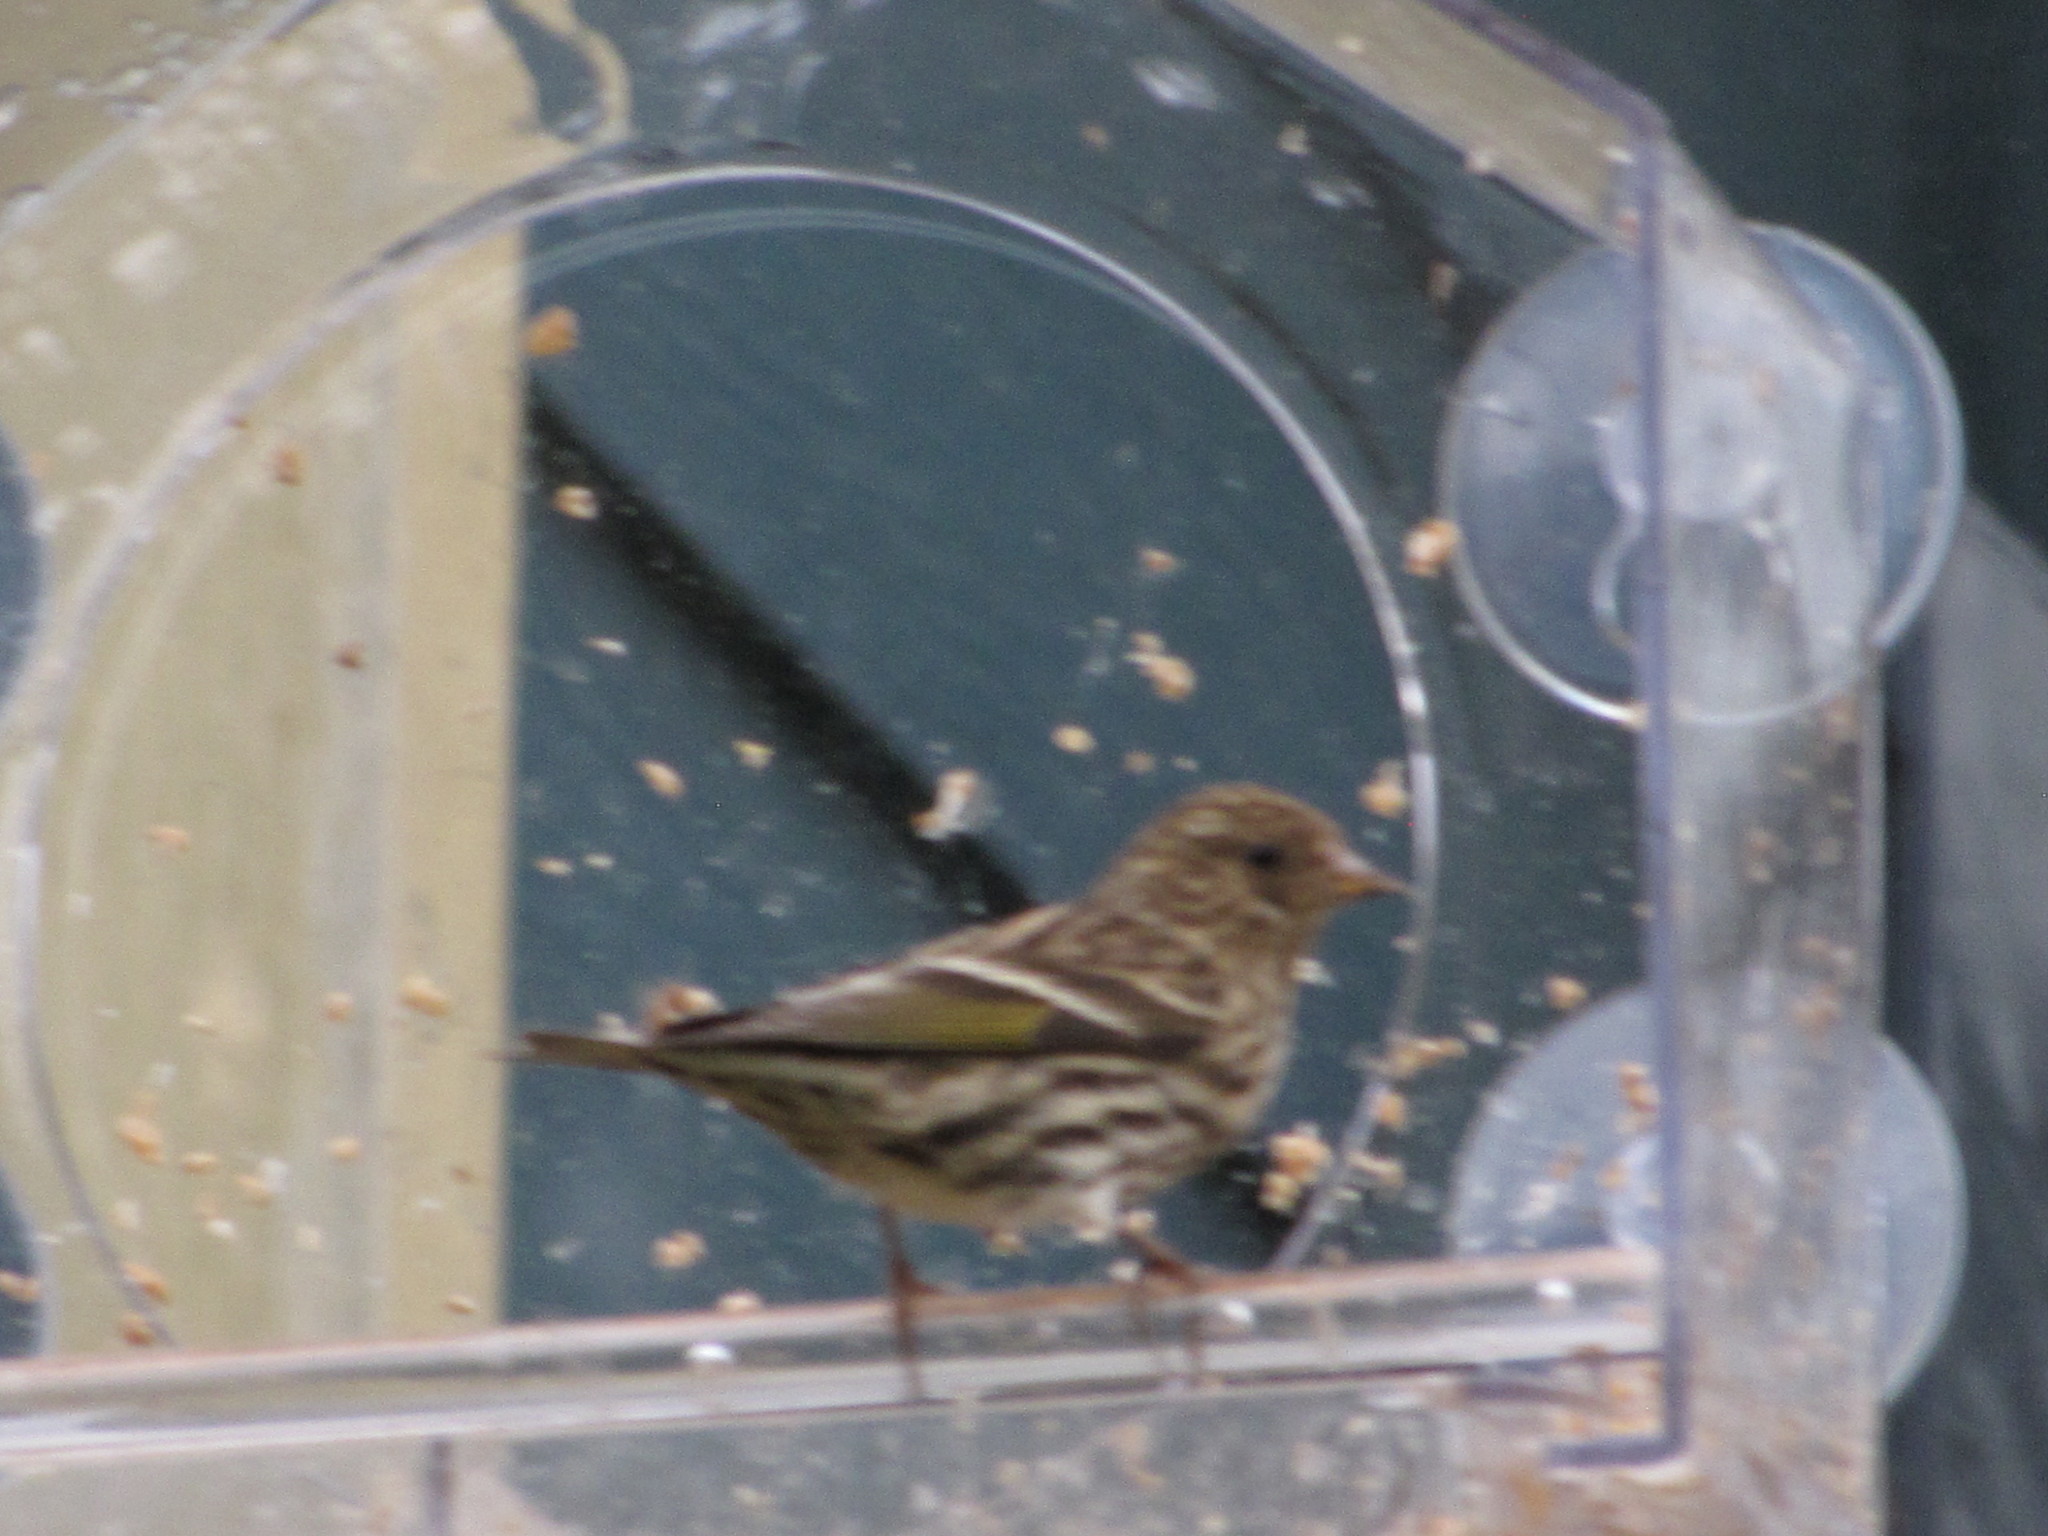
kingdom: Animalia
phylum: Chordata
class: Aves
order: Passeriformes
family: Fringillidae
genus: Spinus
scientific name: Spinus pinus
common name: Pine siskin
